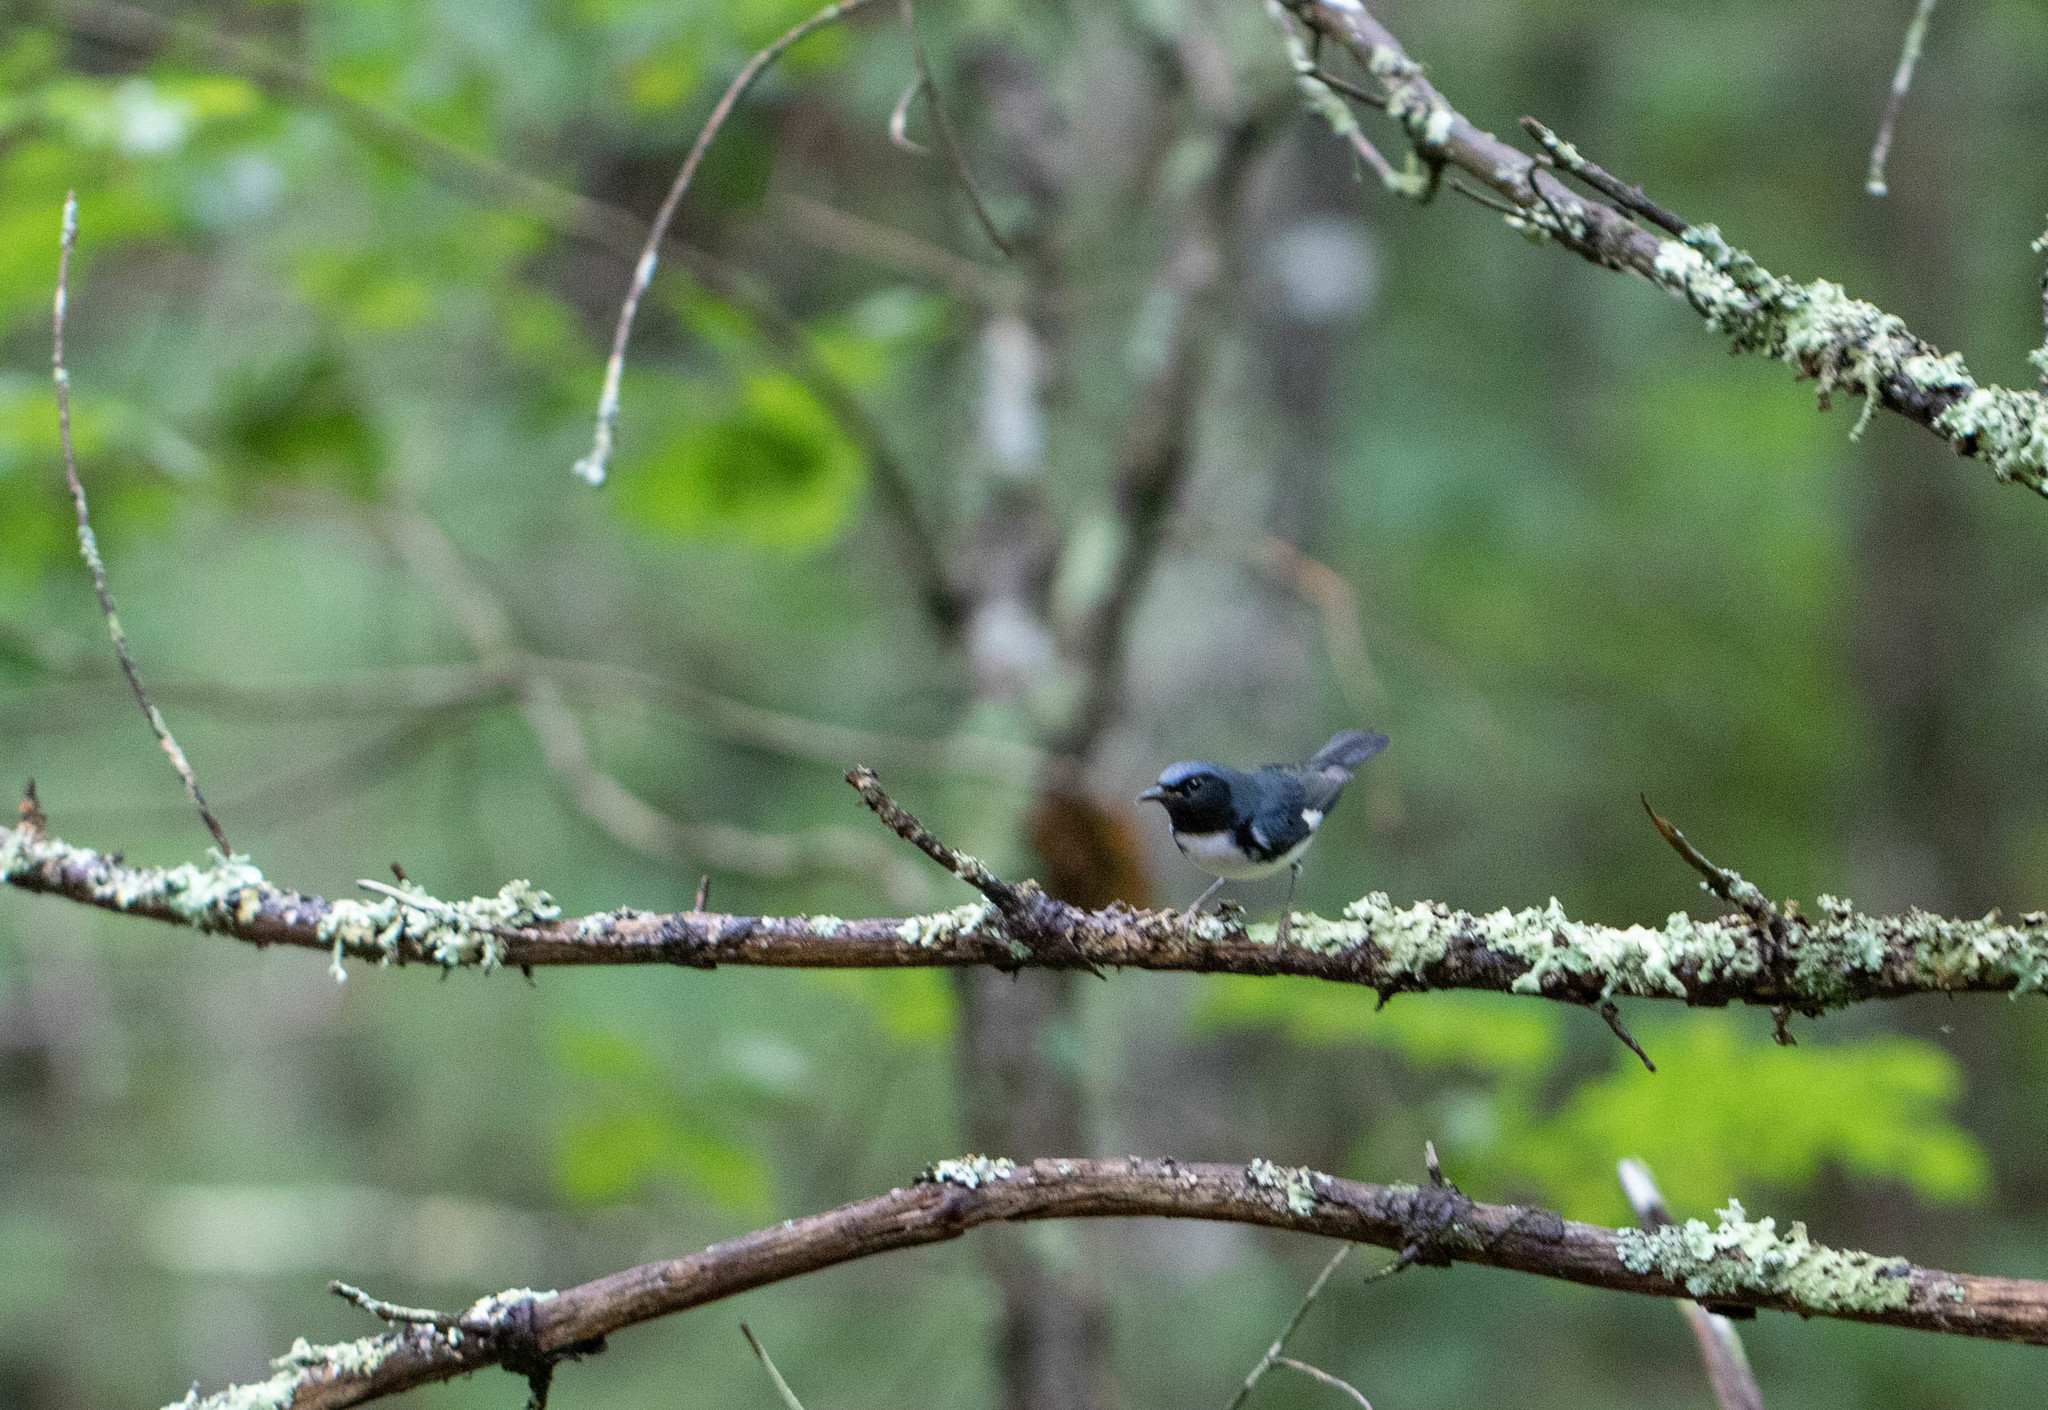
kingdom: Animalia
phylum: Chordata
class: Aves
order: Passeriformes
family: Parulidae
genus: Setophaga
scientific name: Setophaga caerulescens
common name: Black-throated blue warbler
